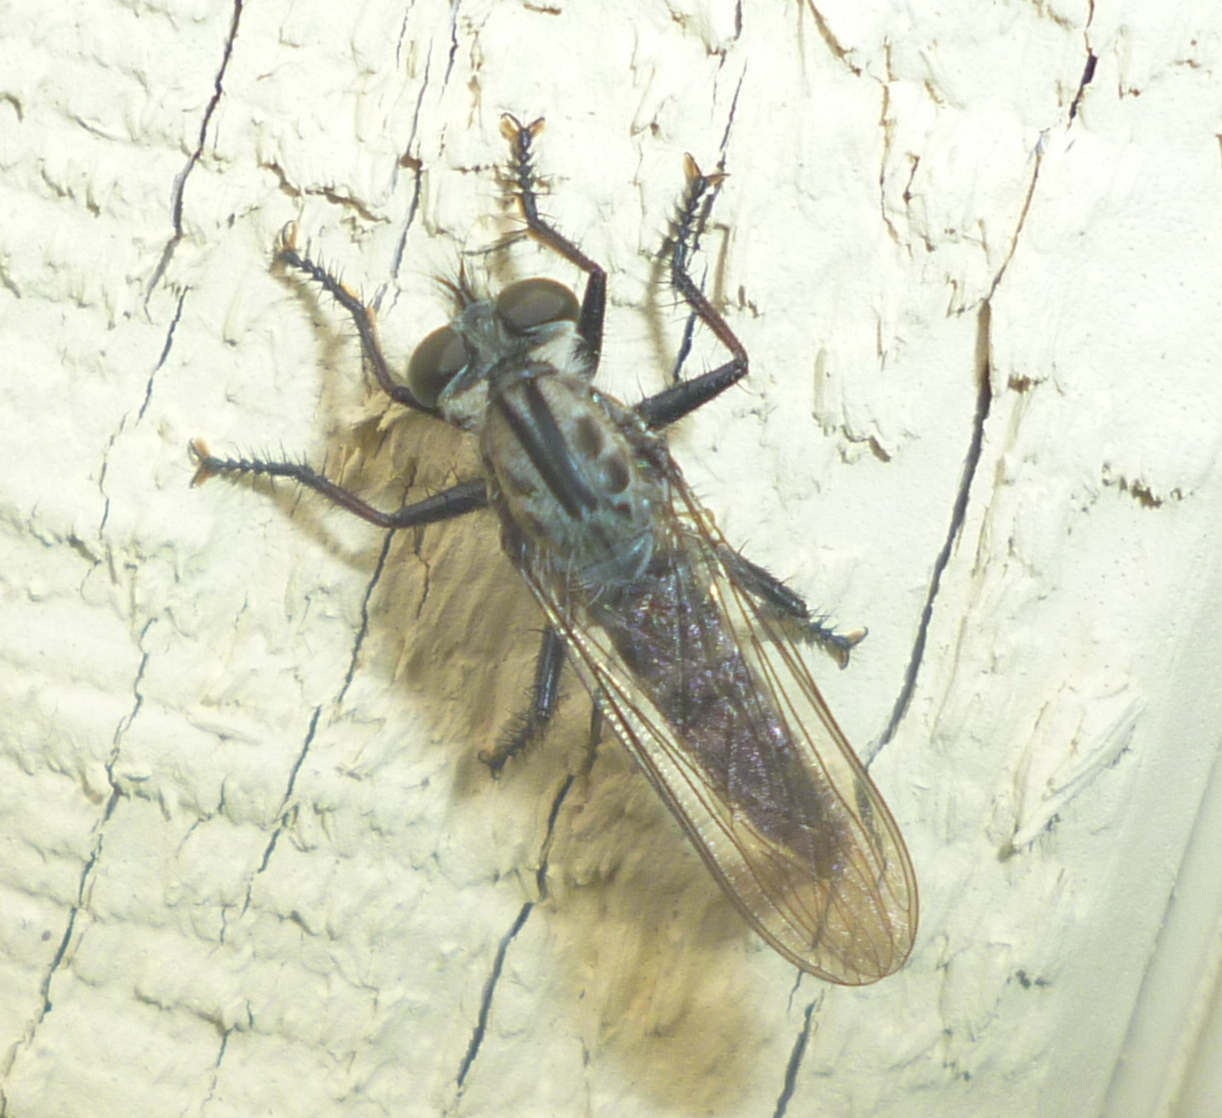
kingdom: Animalia
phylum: Arthropoda
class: Insecta
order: Diptera
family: Asilidae
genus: Efferia
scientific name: Efferia aestuans
